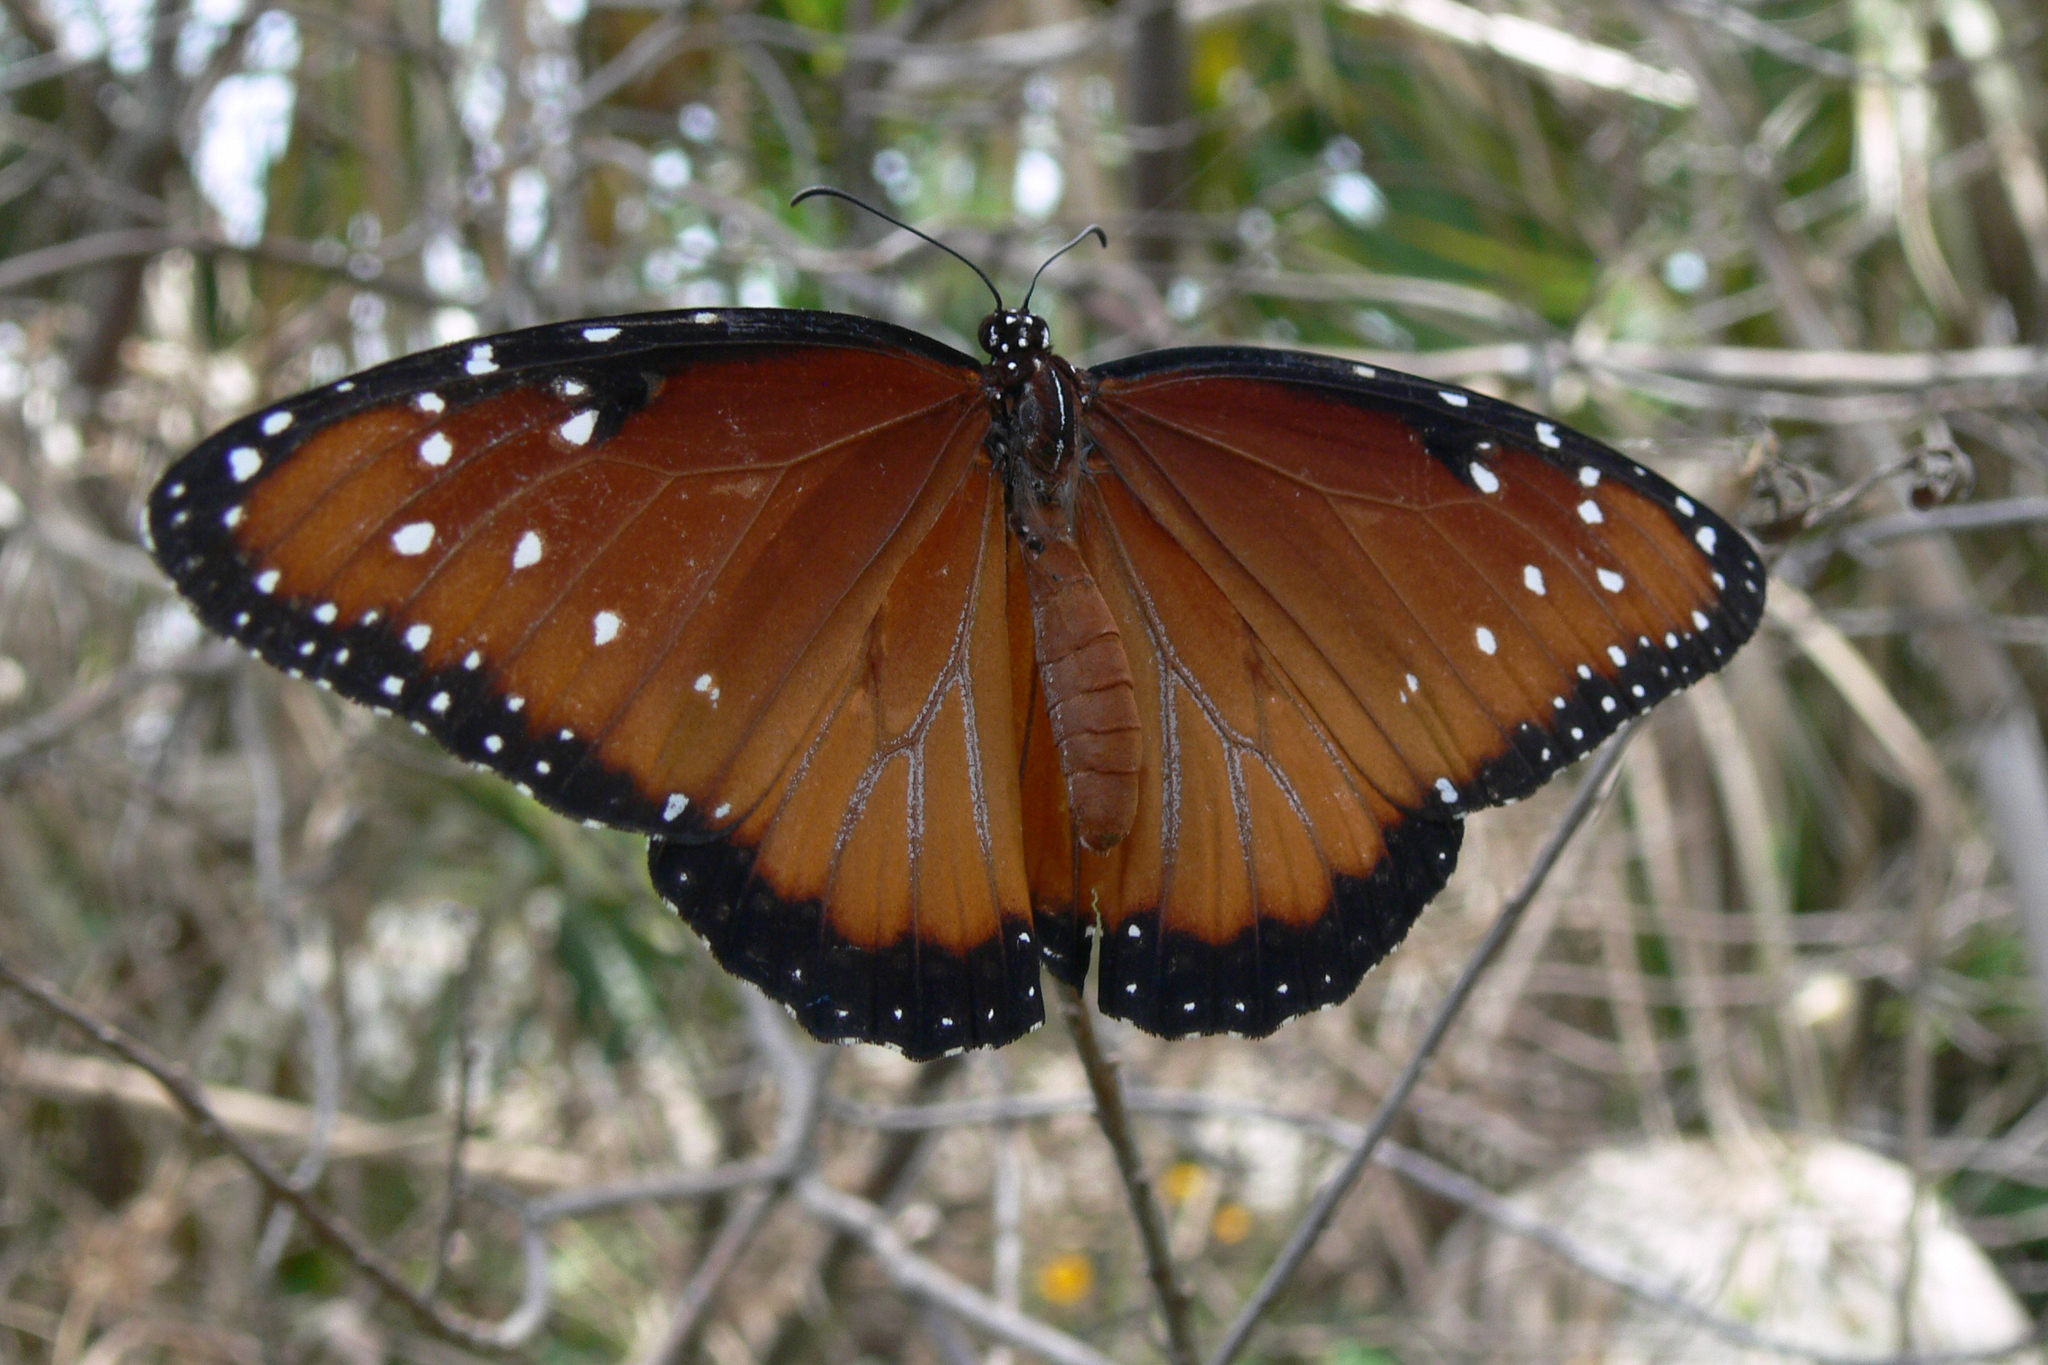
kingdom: Animalia
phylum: Arthropoda
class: Insecta
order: Lepidoptera
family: Nymphalidae
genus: Danaus
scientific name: Danaus gilippus
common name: Queen
